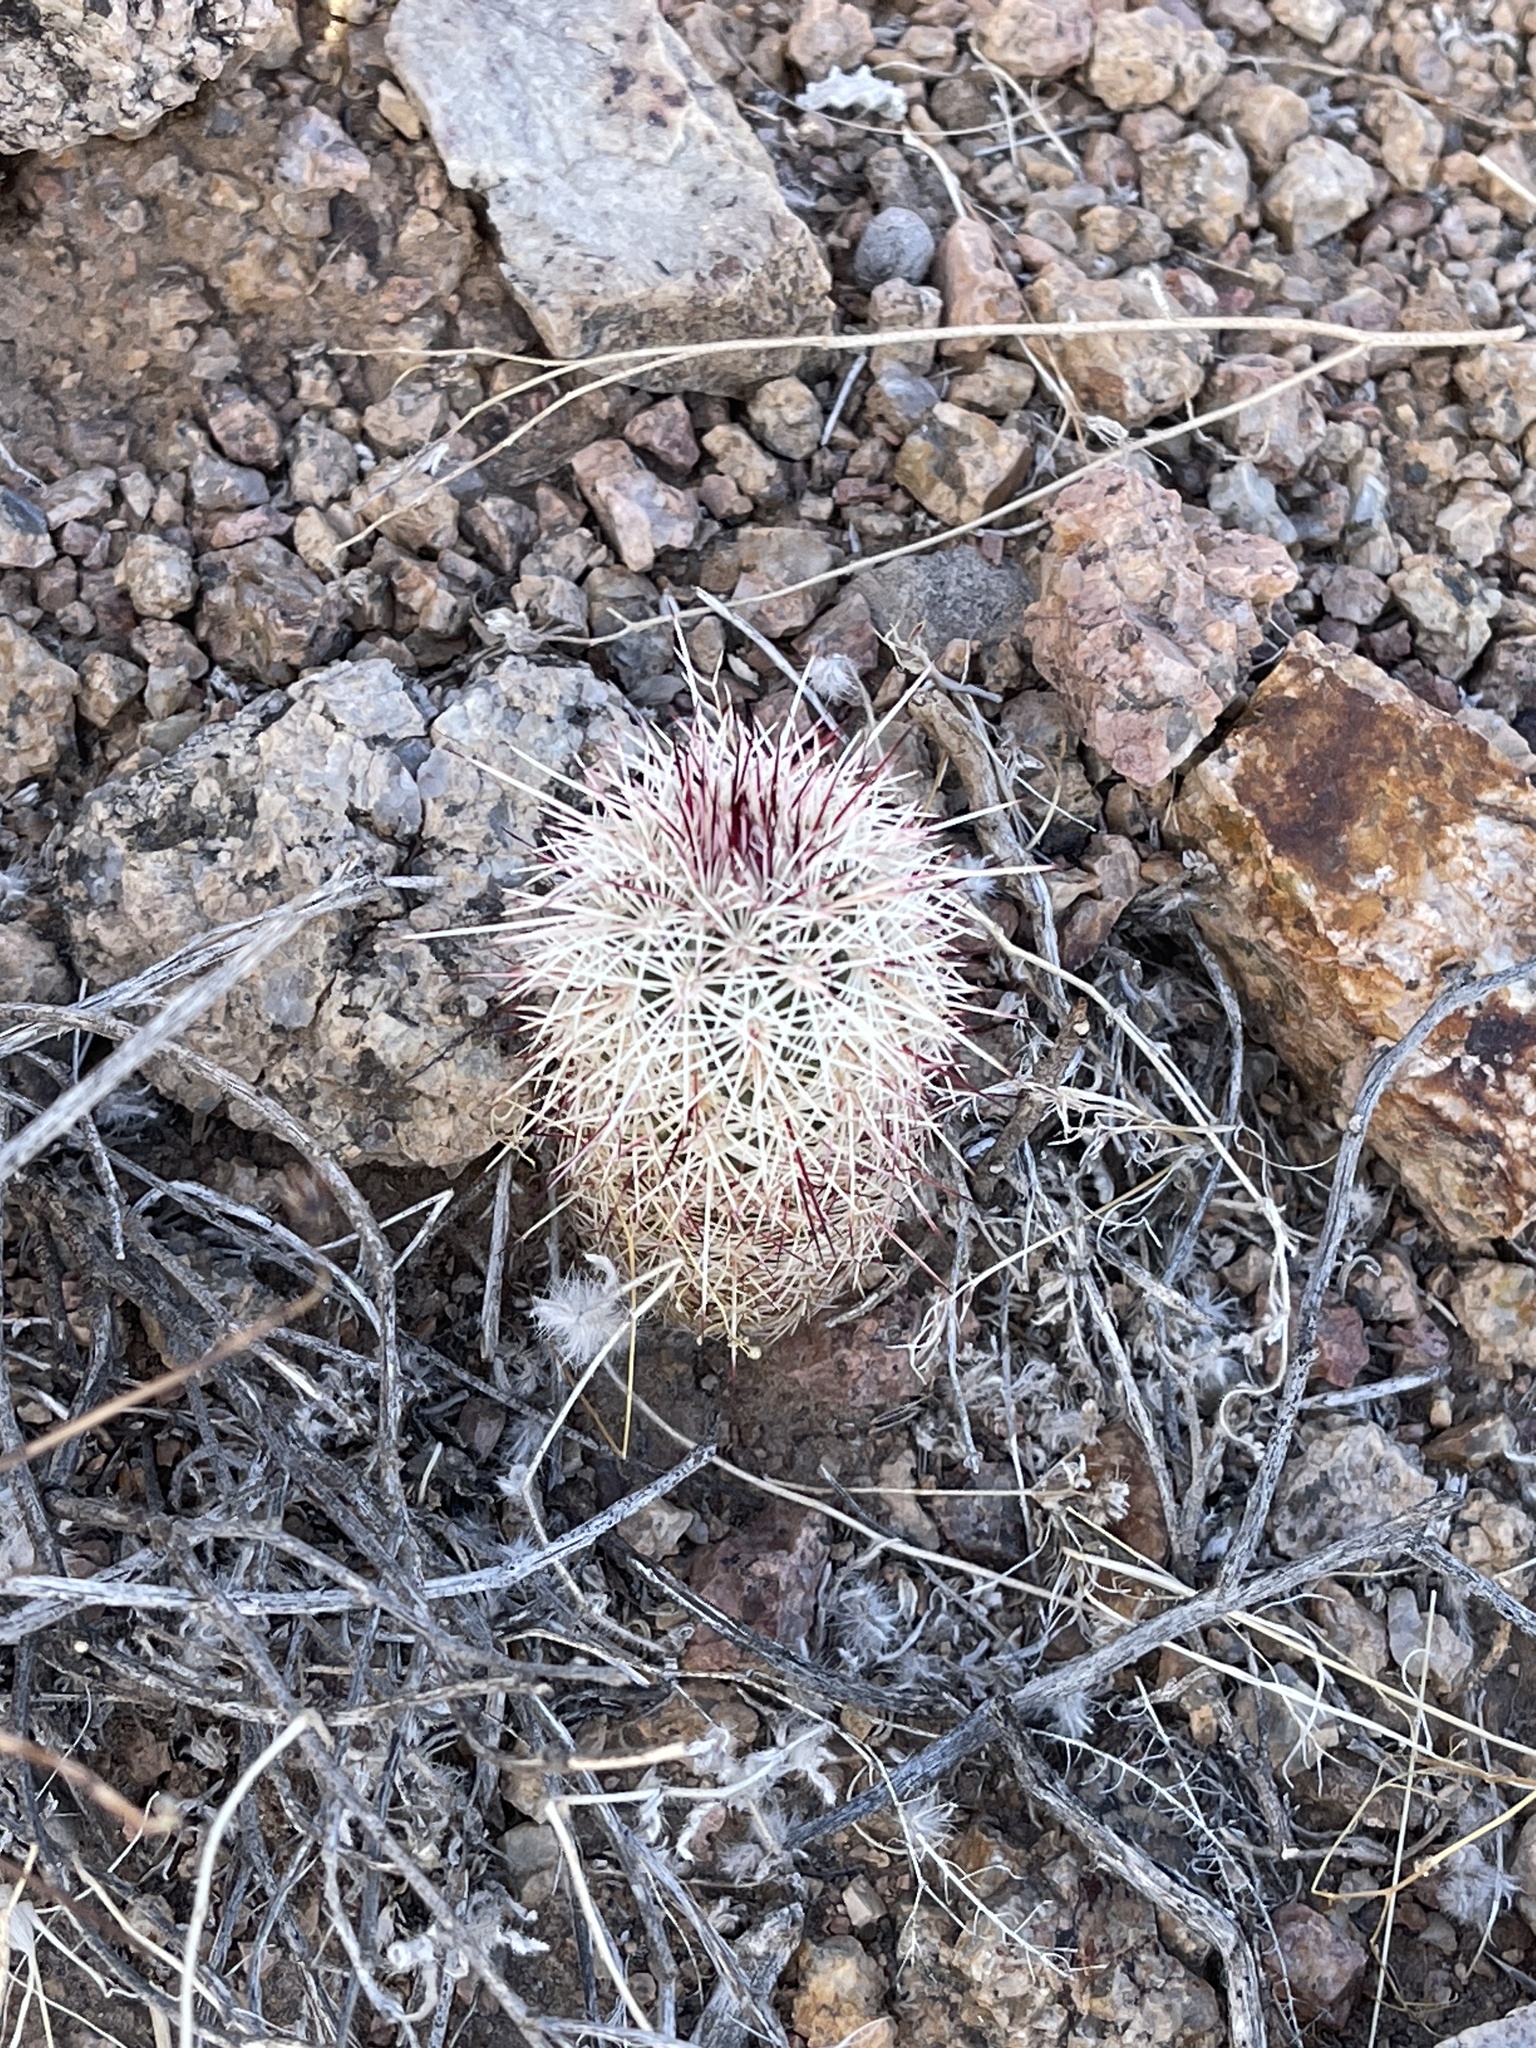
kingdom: Plantae
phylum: Tracheophyta
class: Magnoliopsida
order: Caryophyllales
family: Cactaceae
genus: Echinocereus
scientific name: Echinocereus dasyacanthus
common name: Spiny hedgehog cactus
